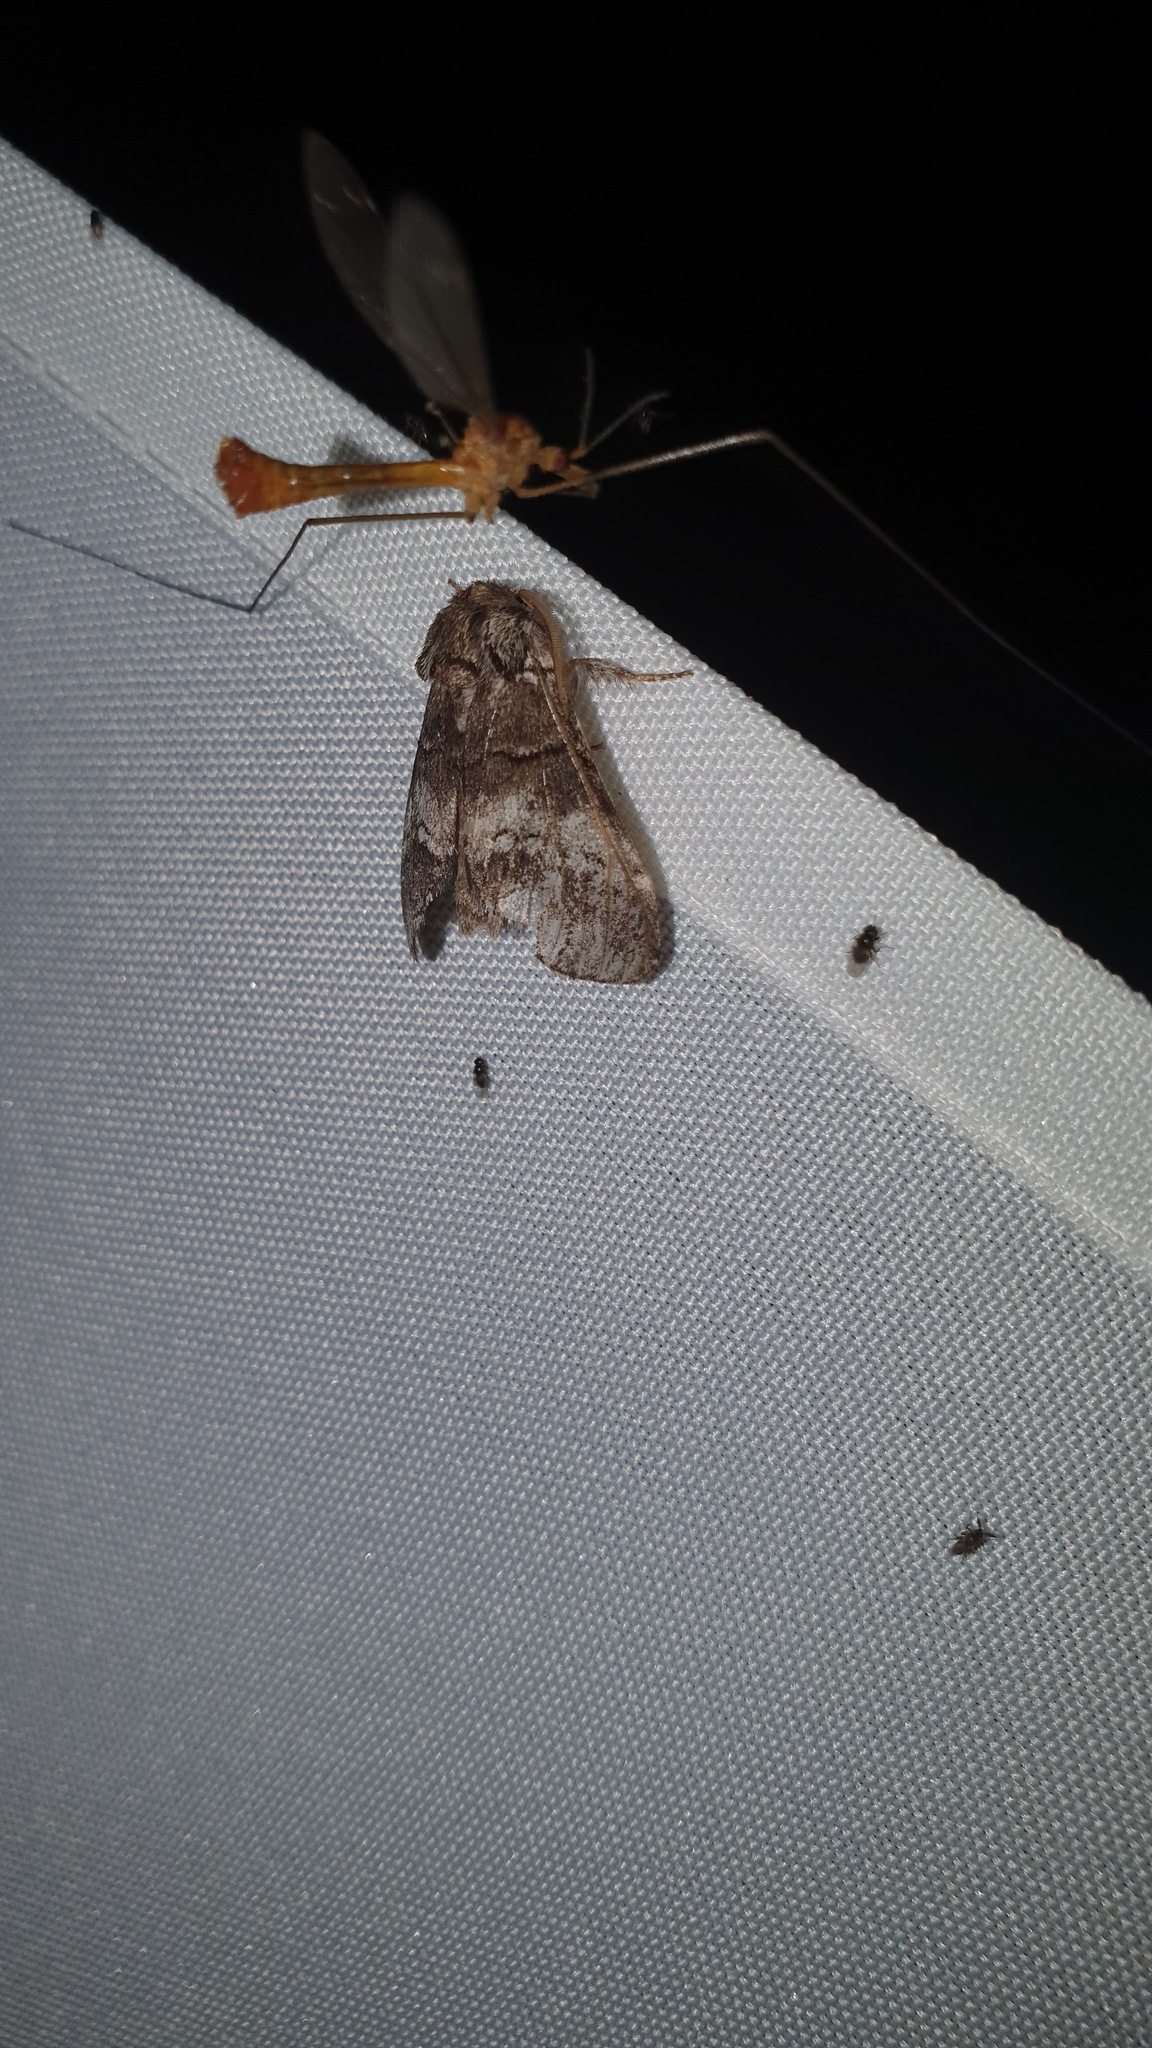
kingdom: Animalia
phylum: Arthropoda
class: Insecta
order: Lepidoptera
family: Notodontidae
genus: Drymonia
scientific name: Drymonia querna
